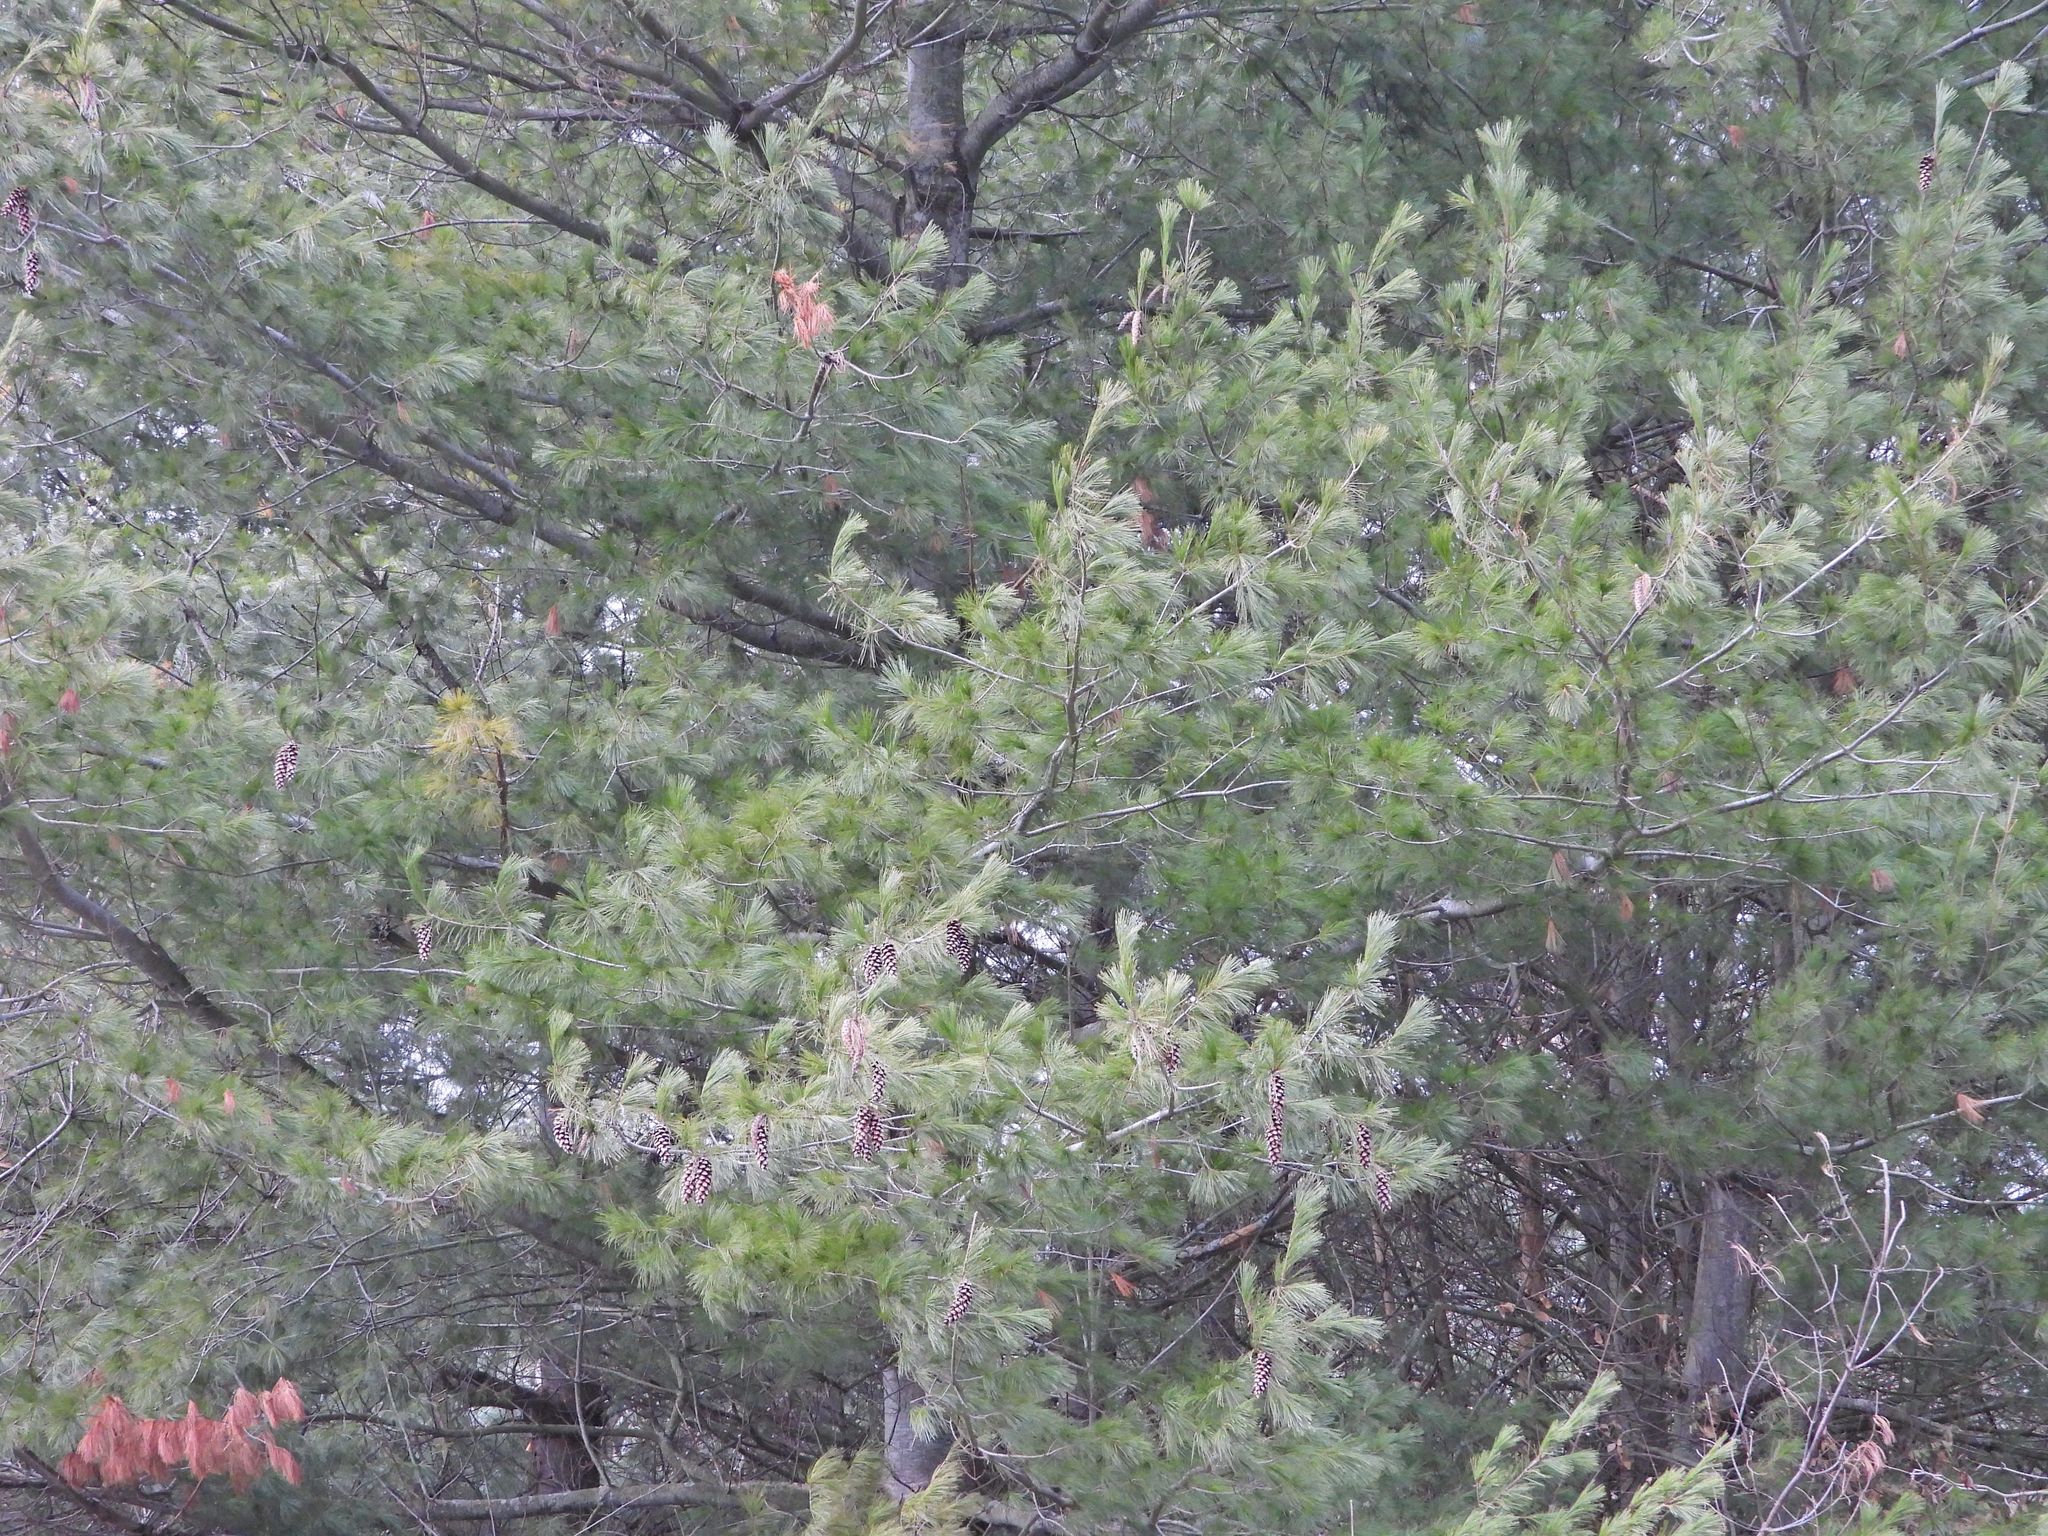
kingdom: Plantae
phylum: Tracheophyta
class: Pinopsida
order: Pinales
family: Pinaceae
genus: Pinus
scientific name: Pinus strobus
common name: Weymouth pine
